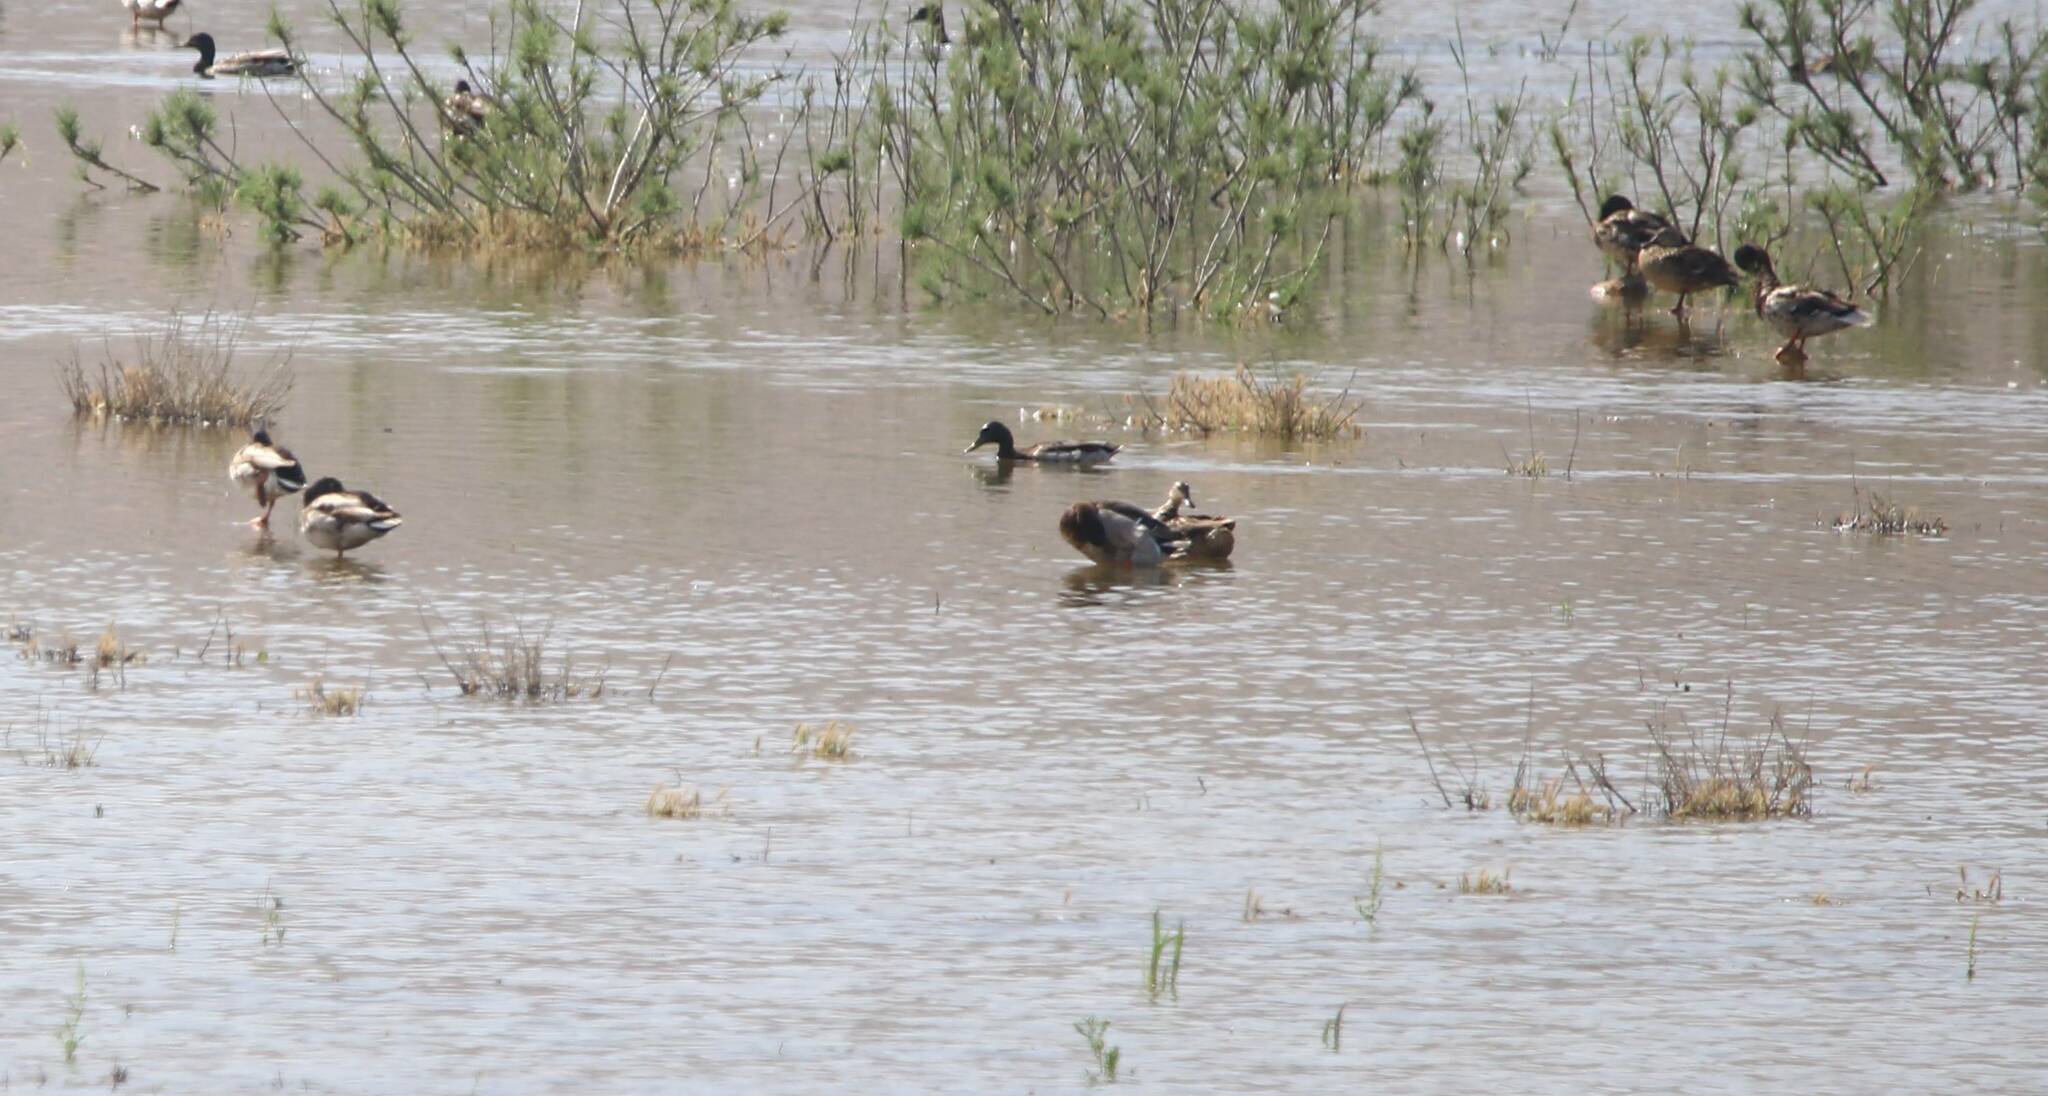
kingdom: Animalia
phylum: Chordata
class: Aves
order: Anseriformes
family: Anatidae
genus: Anas
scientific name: Anas platyrhynchos
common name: Mallard
